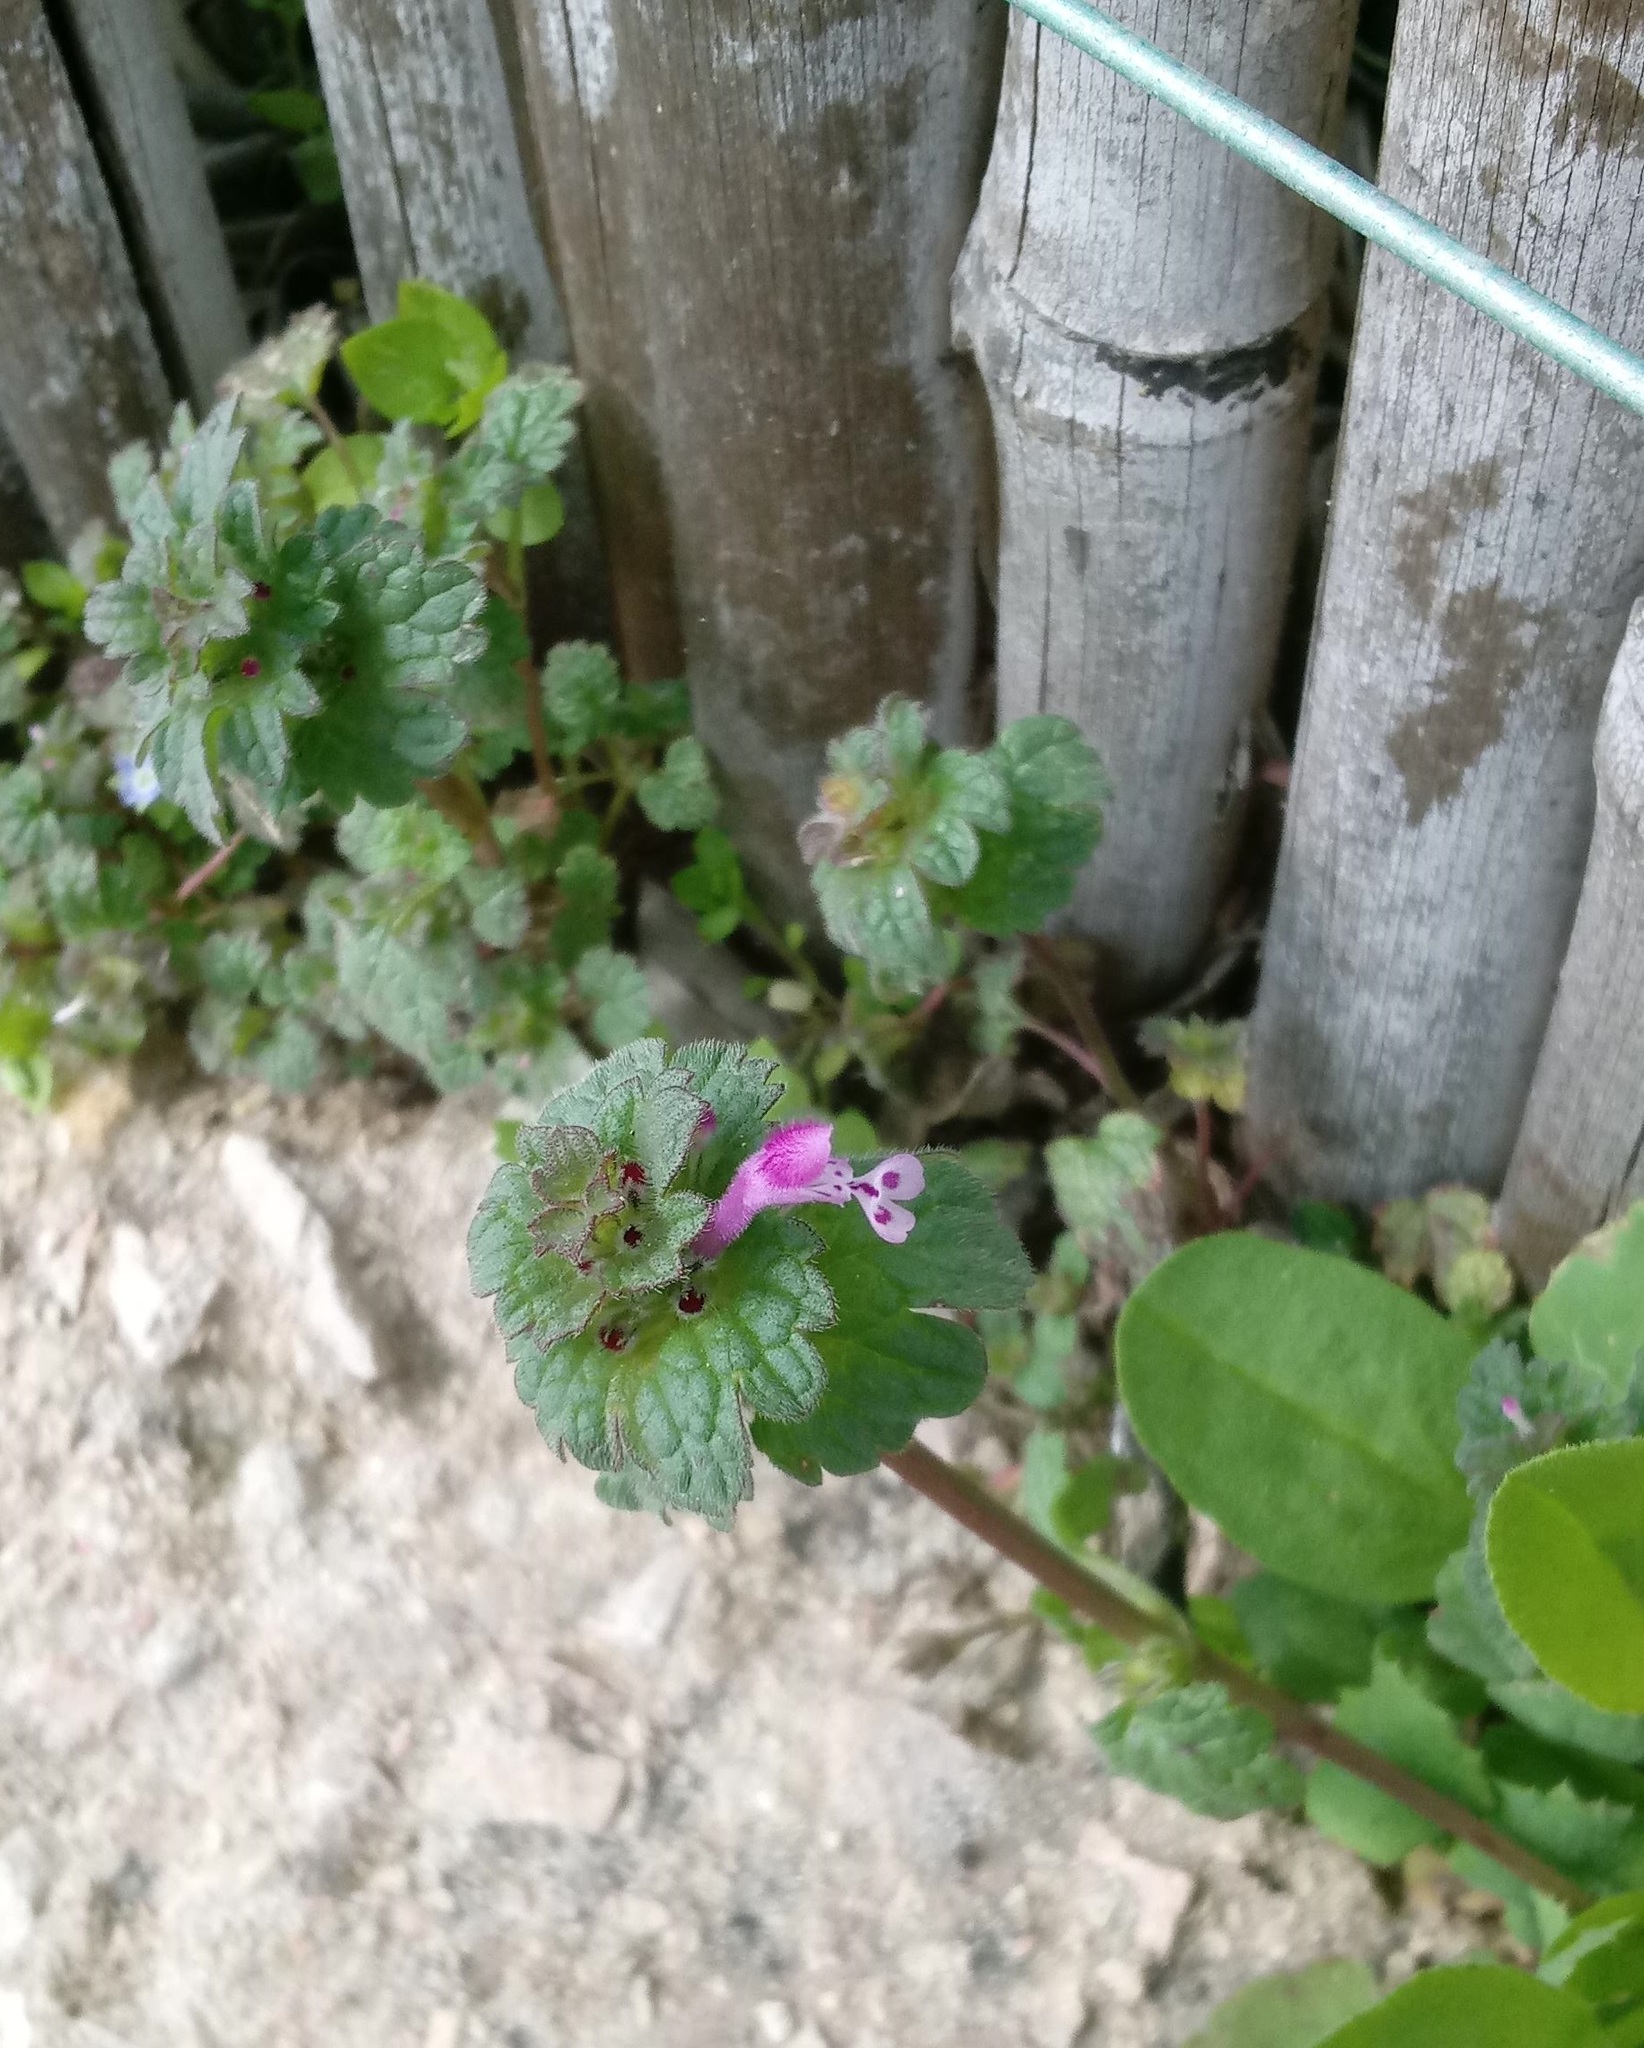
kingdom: Plantae
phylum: Tracheophyta
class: Magnoliopsida
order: Lamiales
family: Lamiaceae
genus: Lamium
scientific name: Lamium amplexicaule
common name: Henbit dead-nettle
